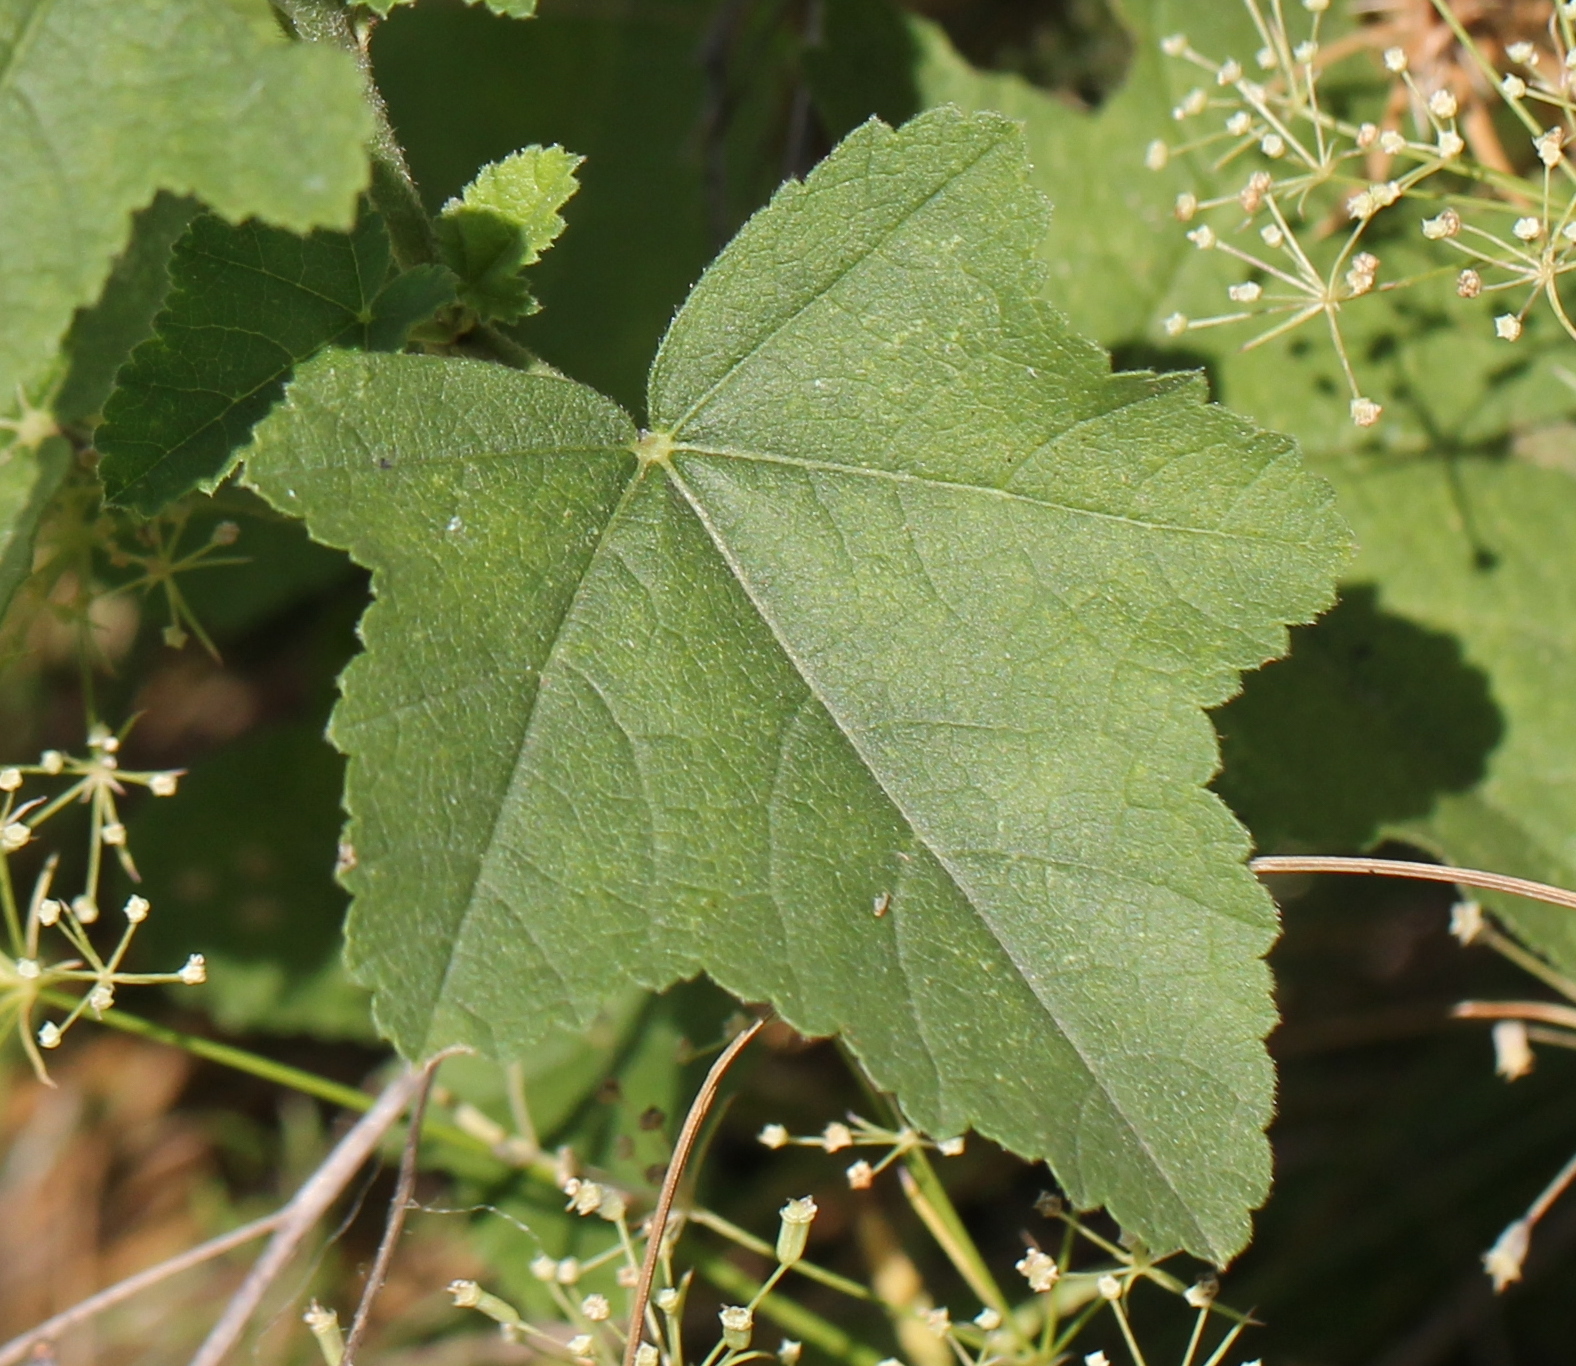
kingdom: Plantae
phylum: Tracheophyta
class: Magnoliopsida
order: Malvales
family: Malvaceae
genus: Malva
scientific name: Malva thuringiaca
